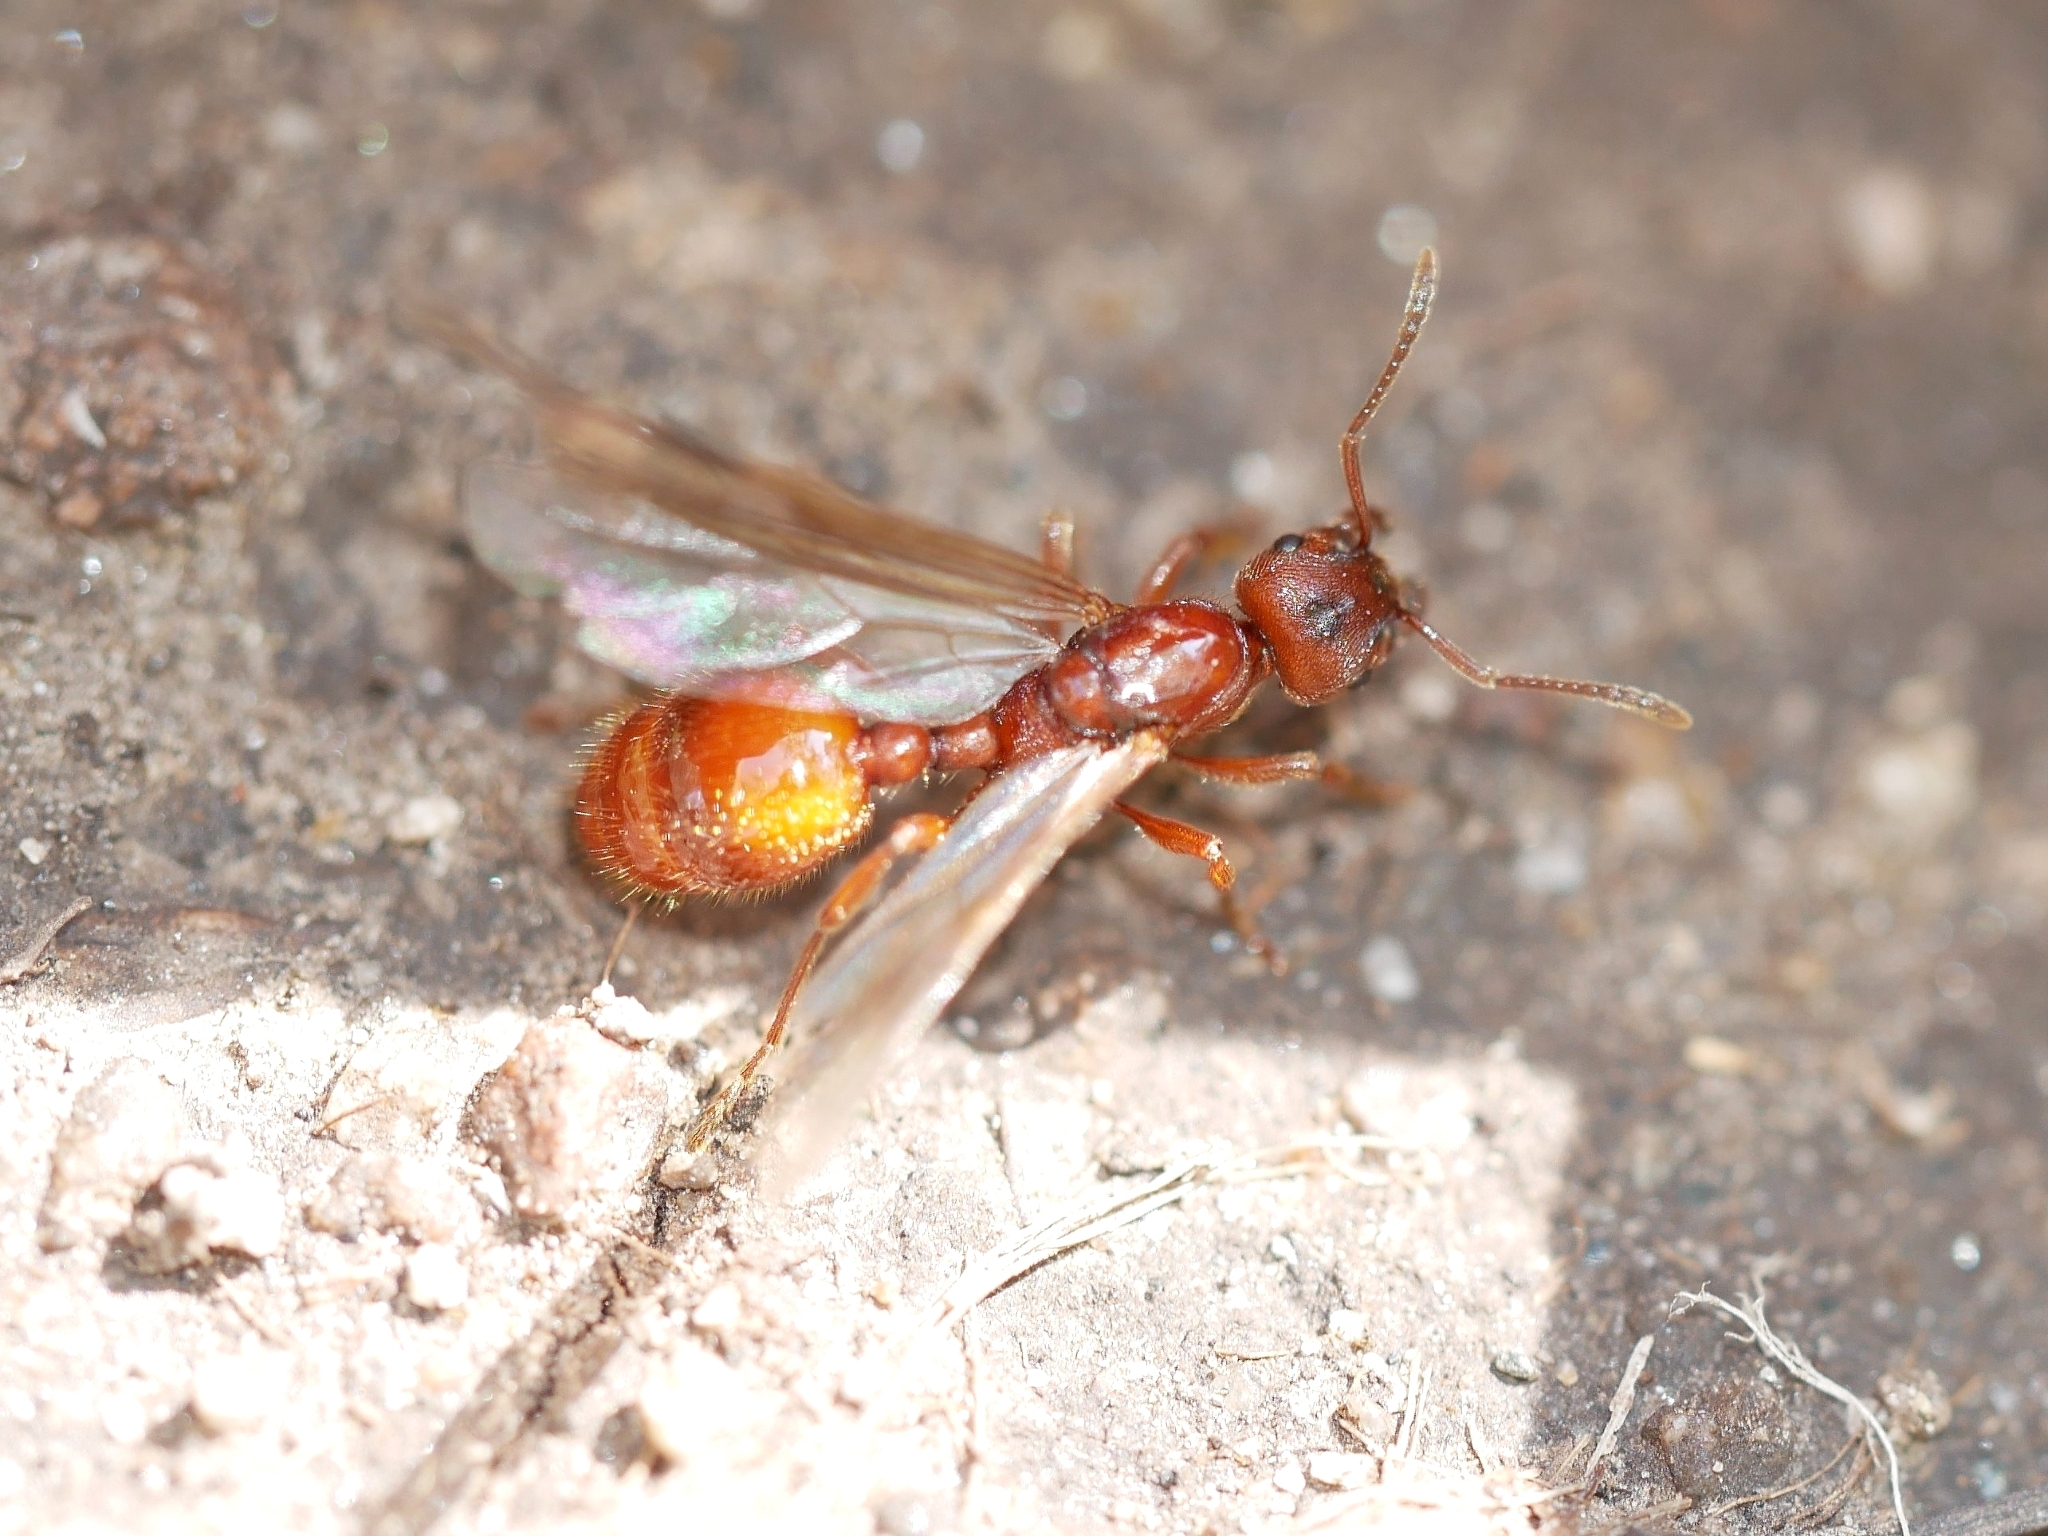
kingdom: Animalia
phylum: Arthropoda
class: Insecta
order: Hymenoptera
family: Formicidae
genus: Manica
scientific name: Manica hunteri
